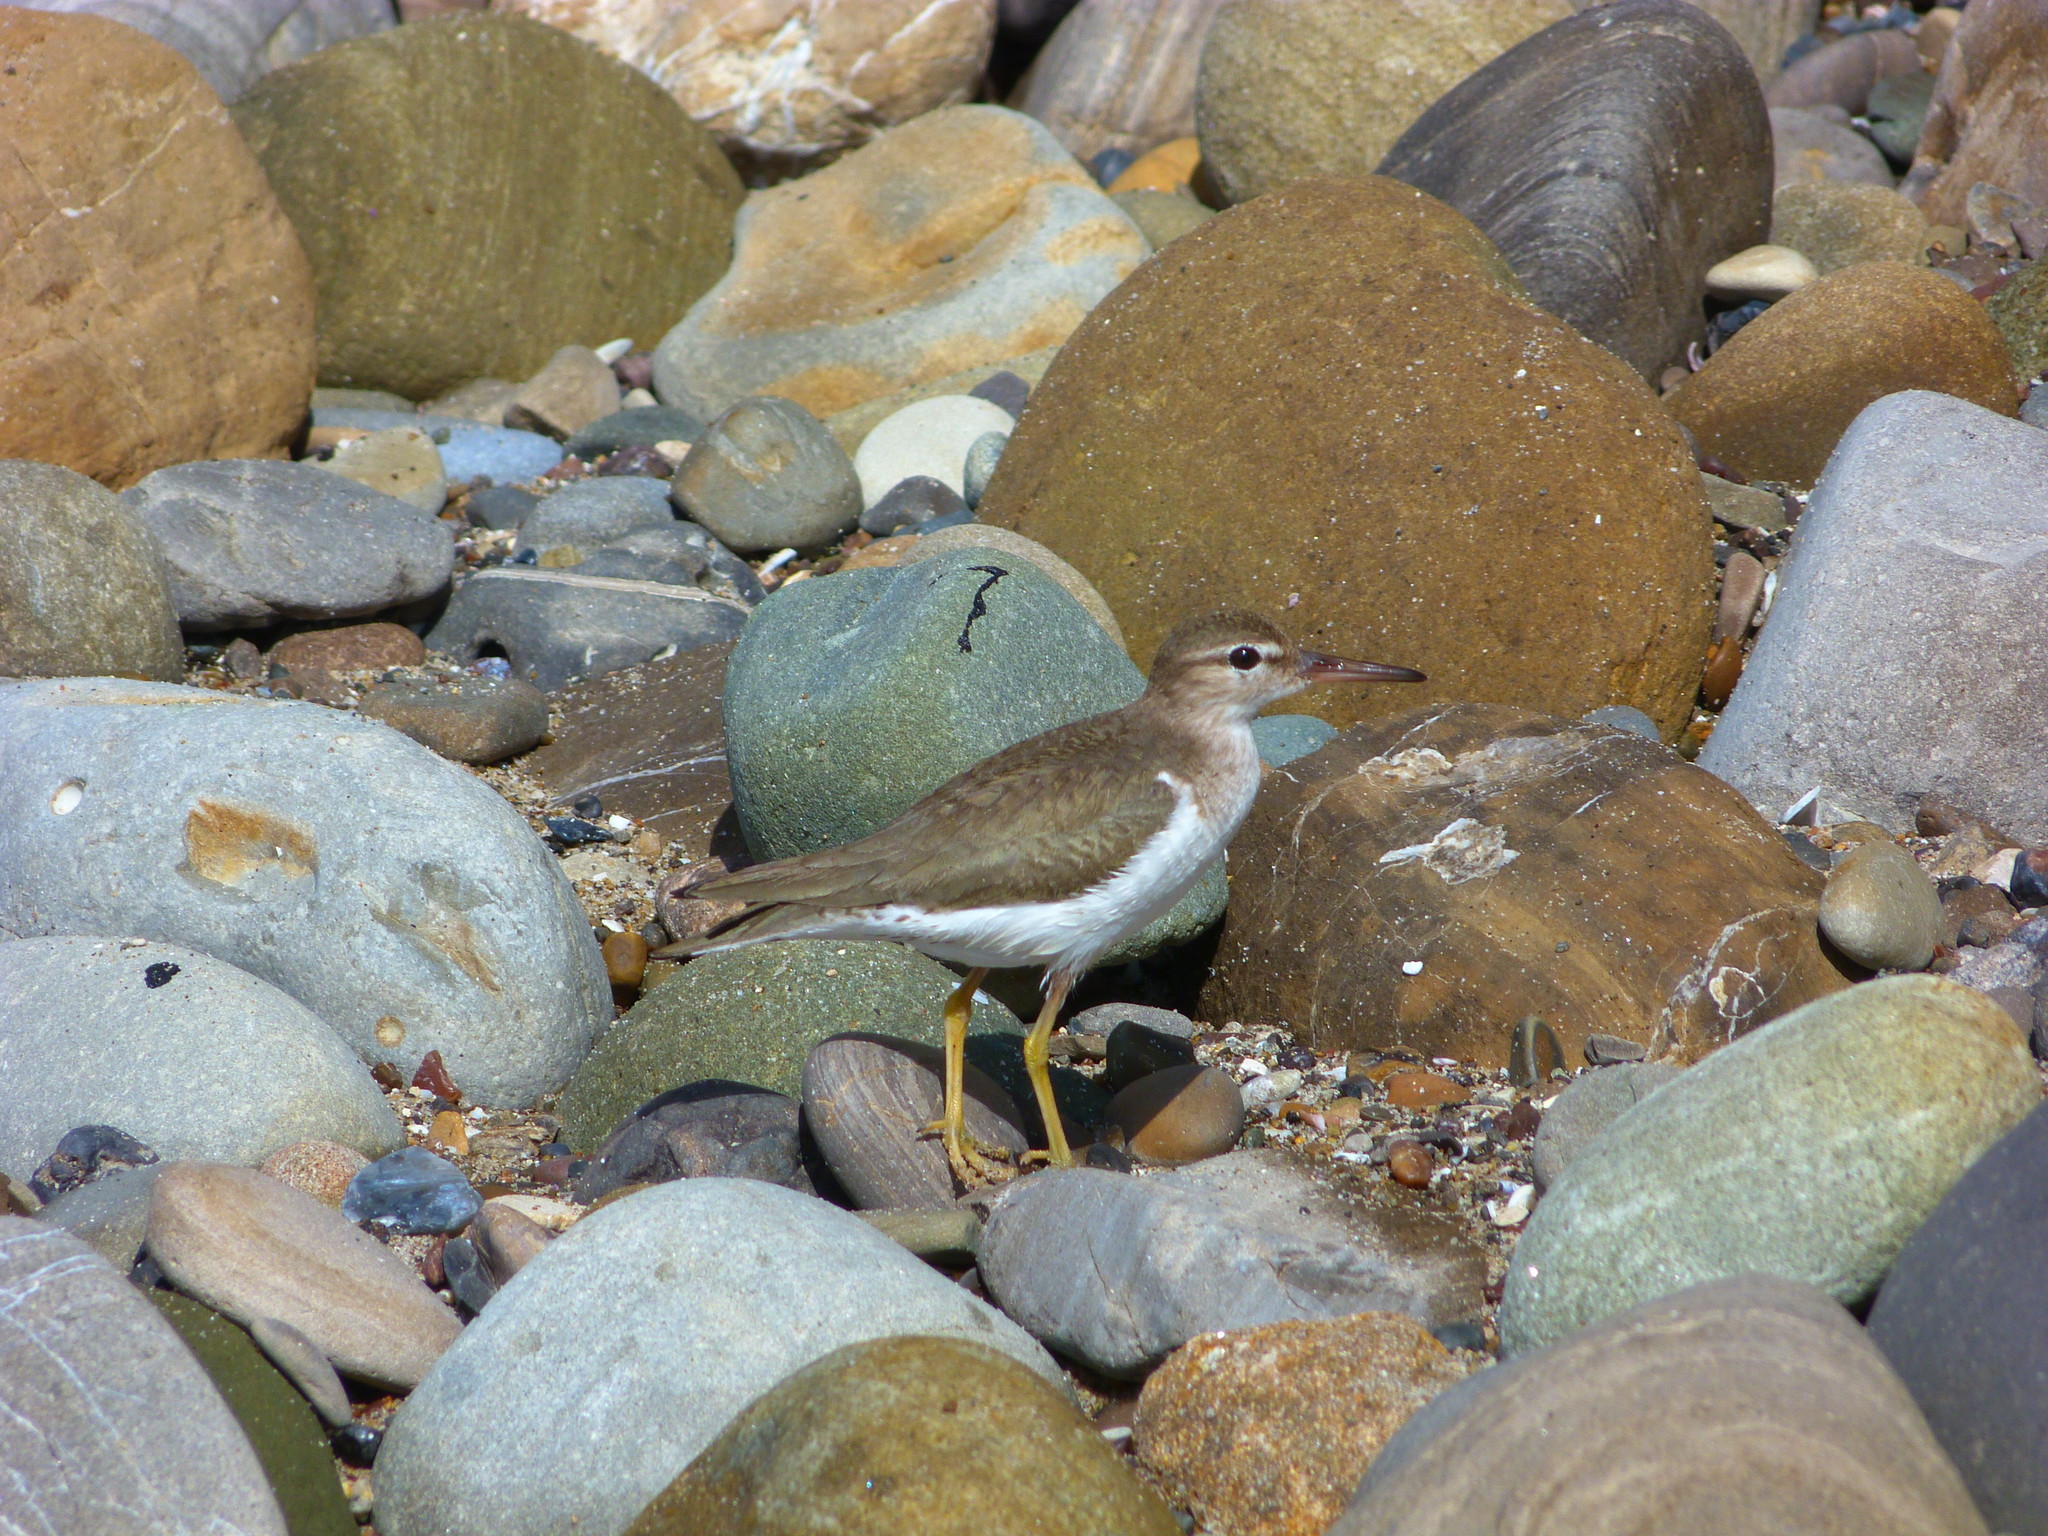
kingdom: Animalia
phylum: Chordata
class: Aves
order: Charadriiformes
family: Scolopacidae
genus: Actitis
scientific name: Actitis macularius
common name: Spotted sandpiper
